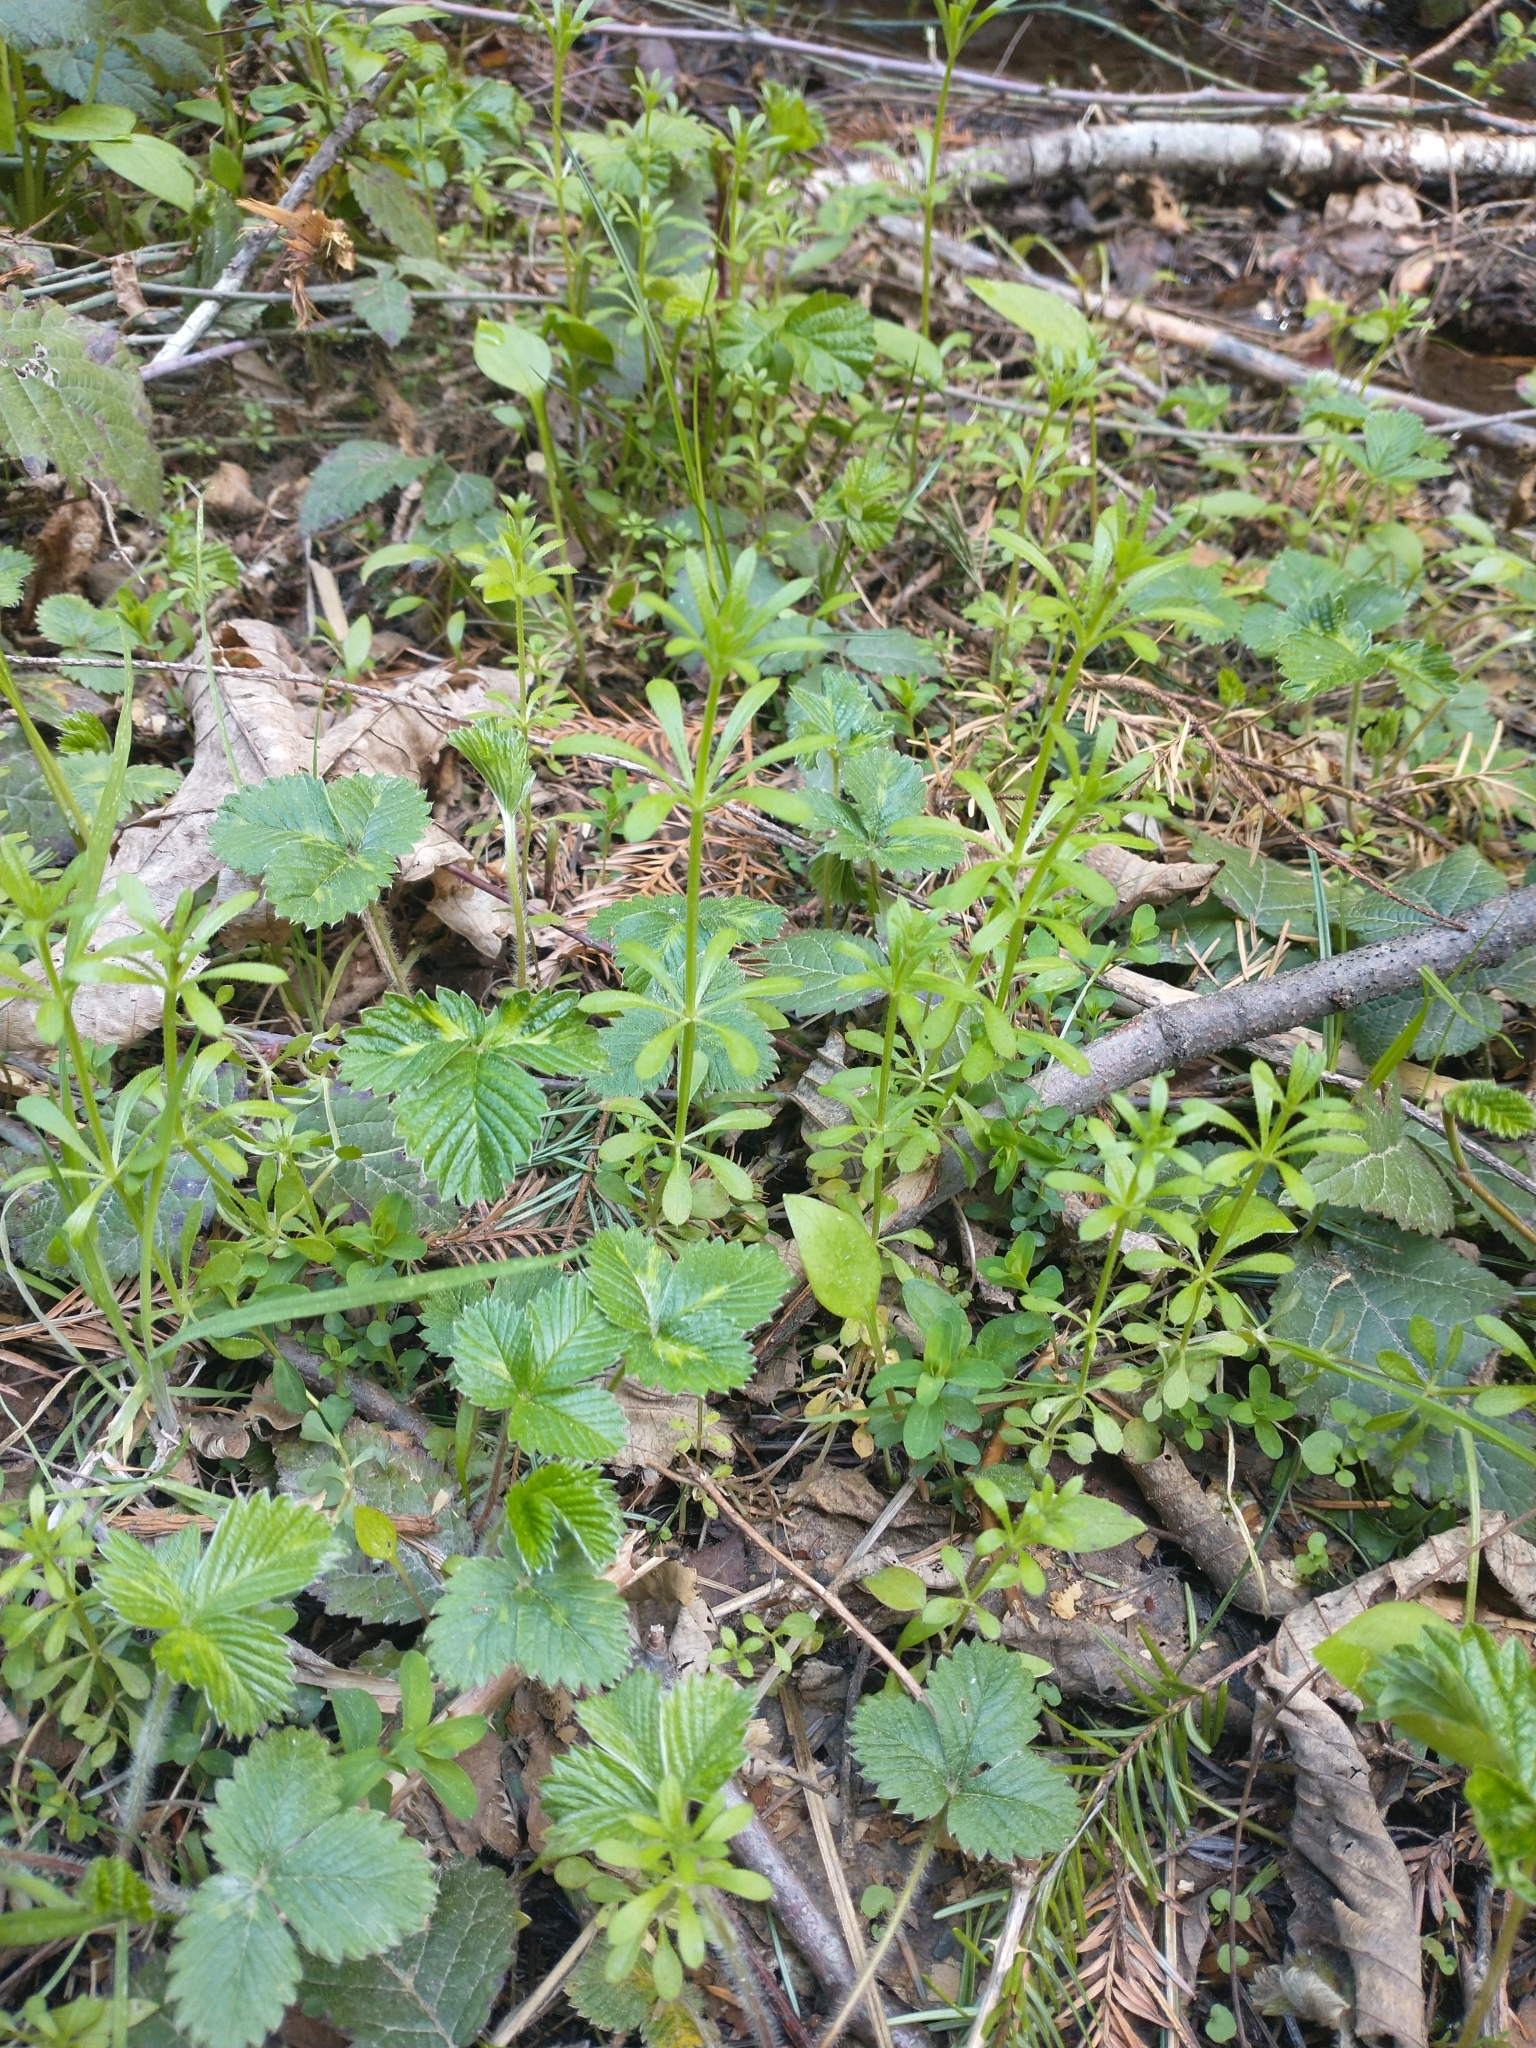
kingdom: Plantae
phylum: Tracheophyta
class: Magnoliopsida
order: Rosales
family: Rosaceae
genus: Fragaria
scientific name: Fragaria vesca
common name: Wild strawberry
